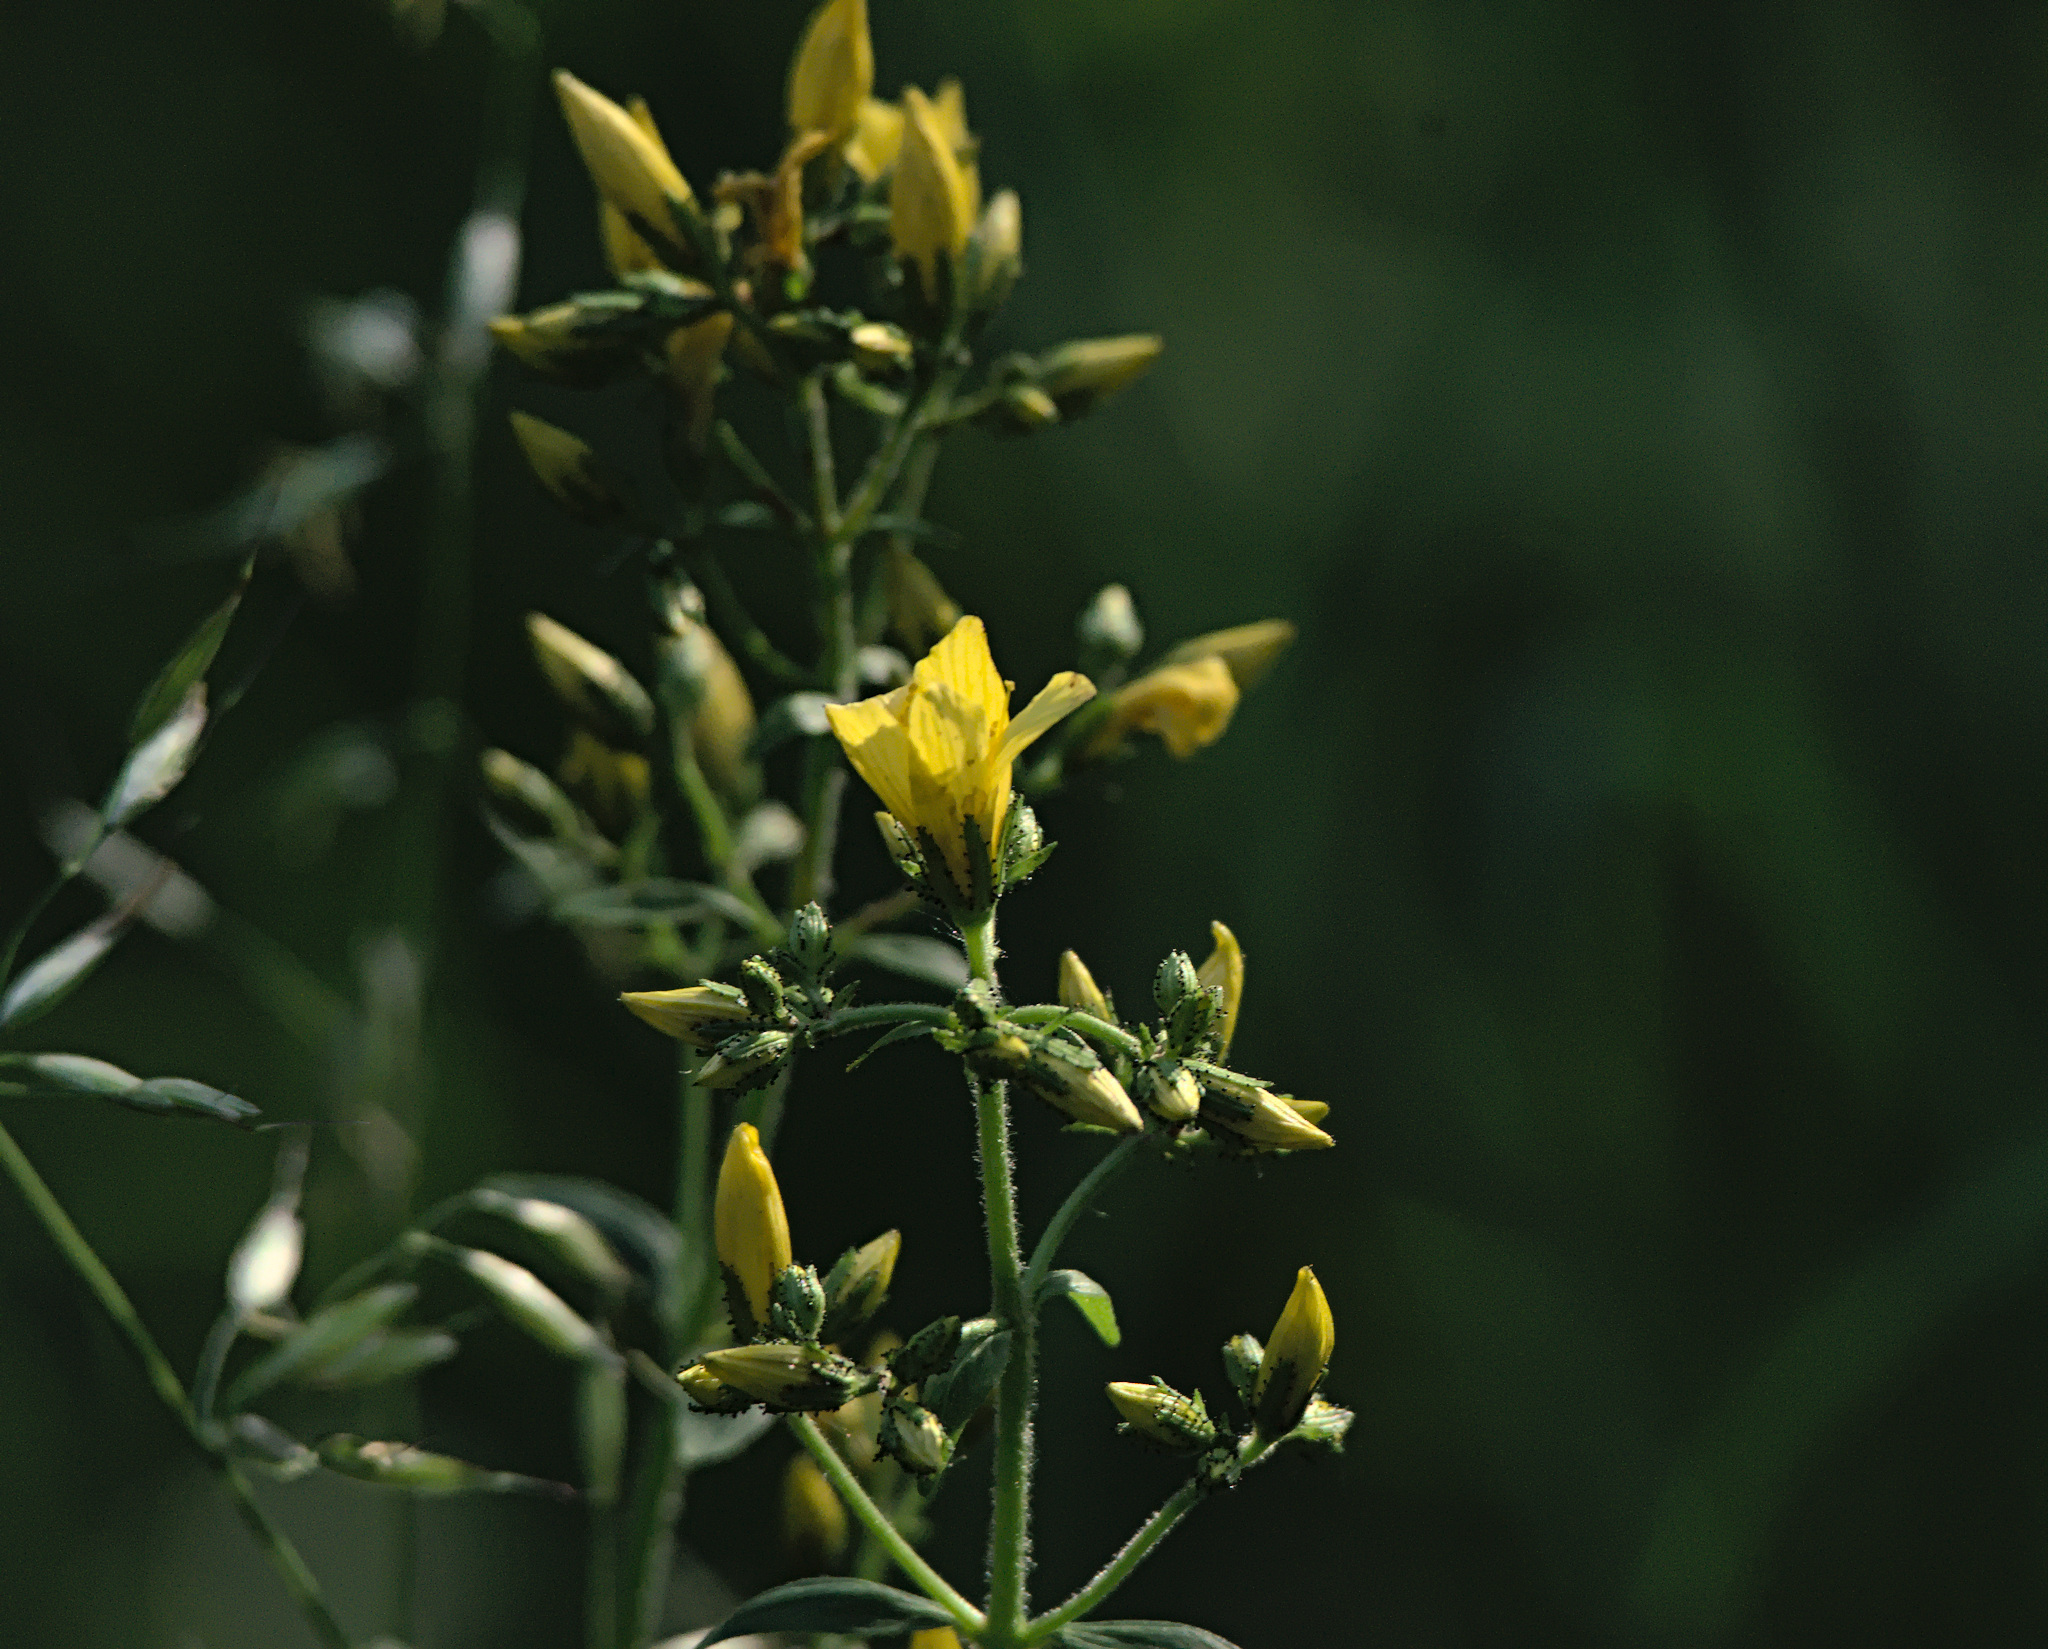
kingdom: Plantae
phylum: Tracheophyta
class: Magnoliopsida
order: Malpighiales
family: Hypericaceae
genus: Hypericum
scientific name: Hypericum hirsutum
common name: Hairy st. john's-wort
